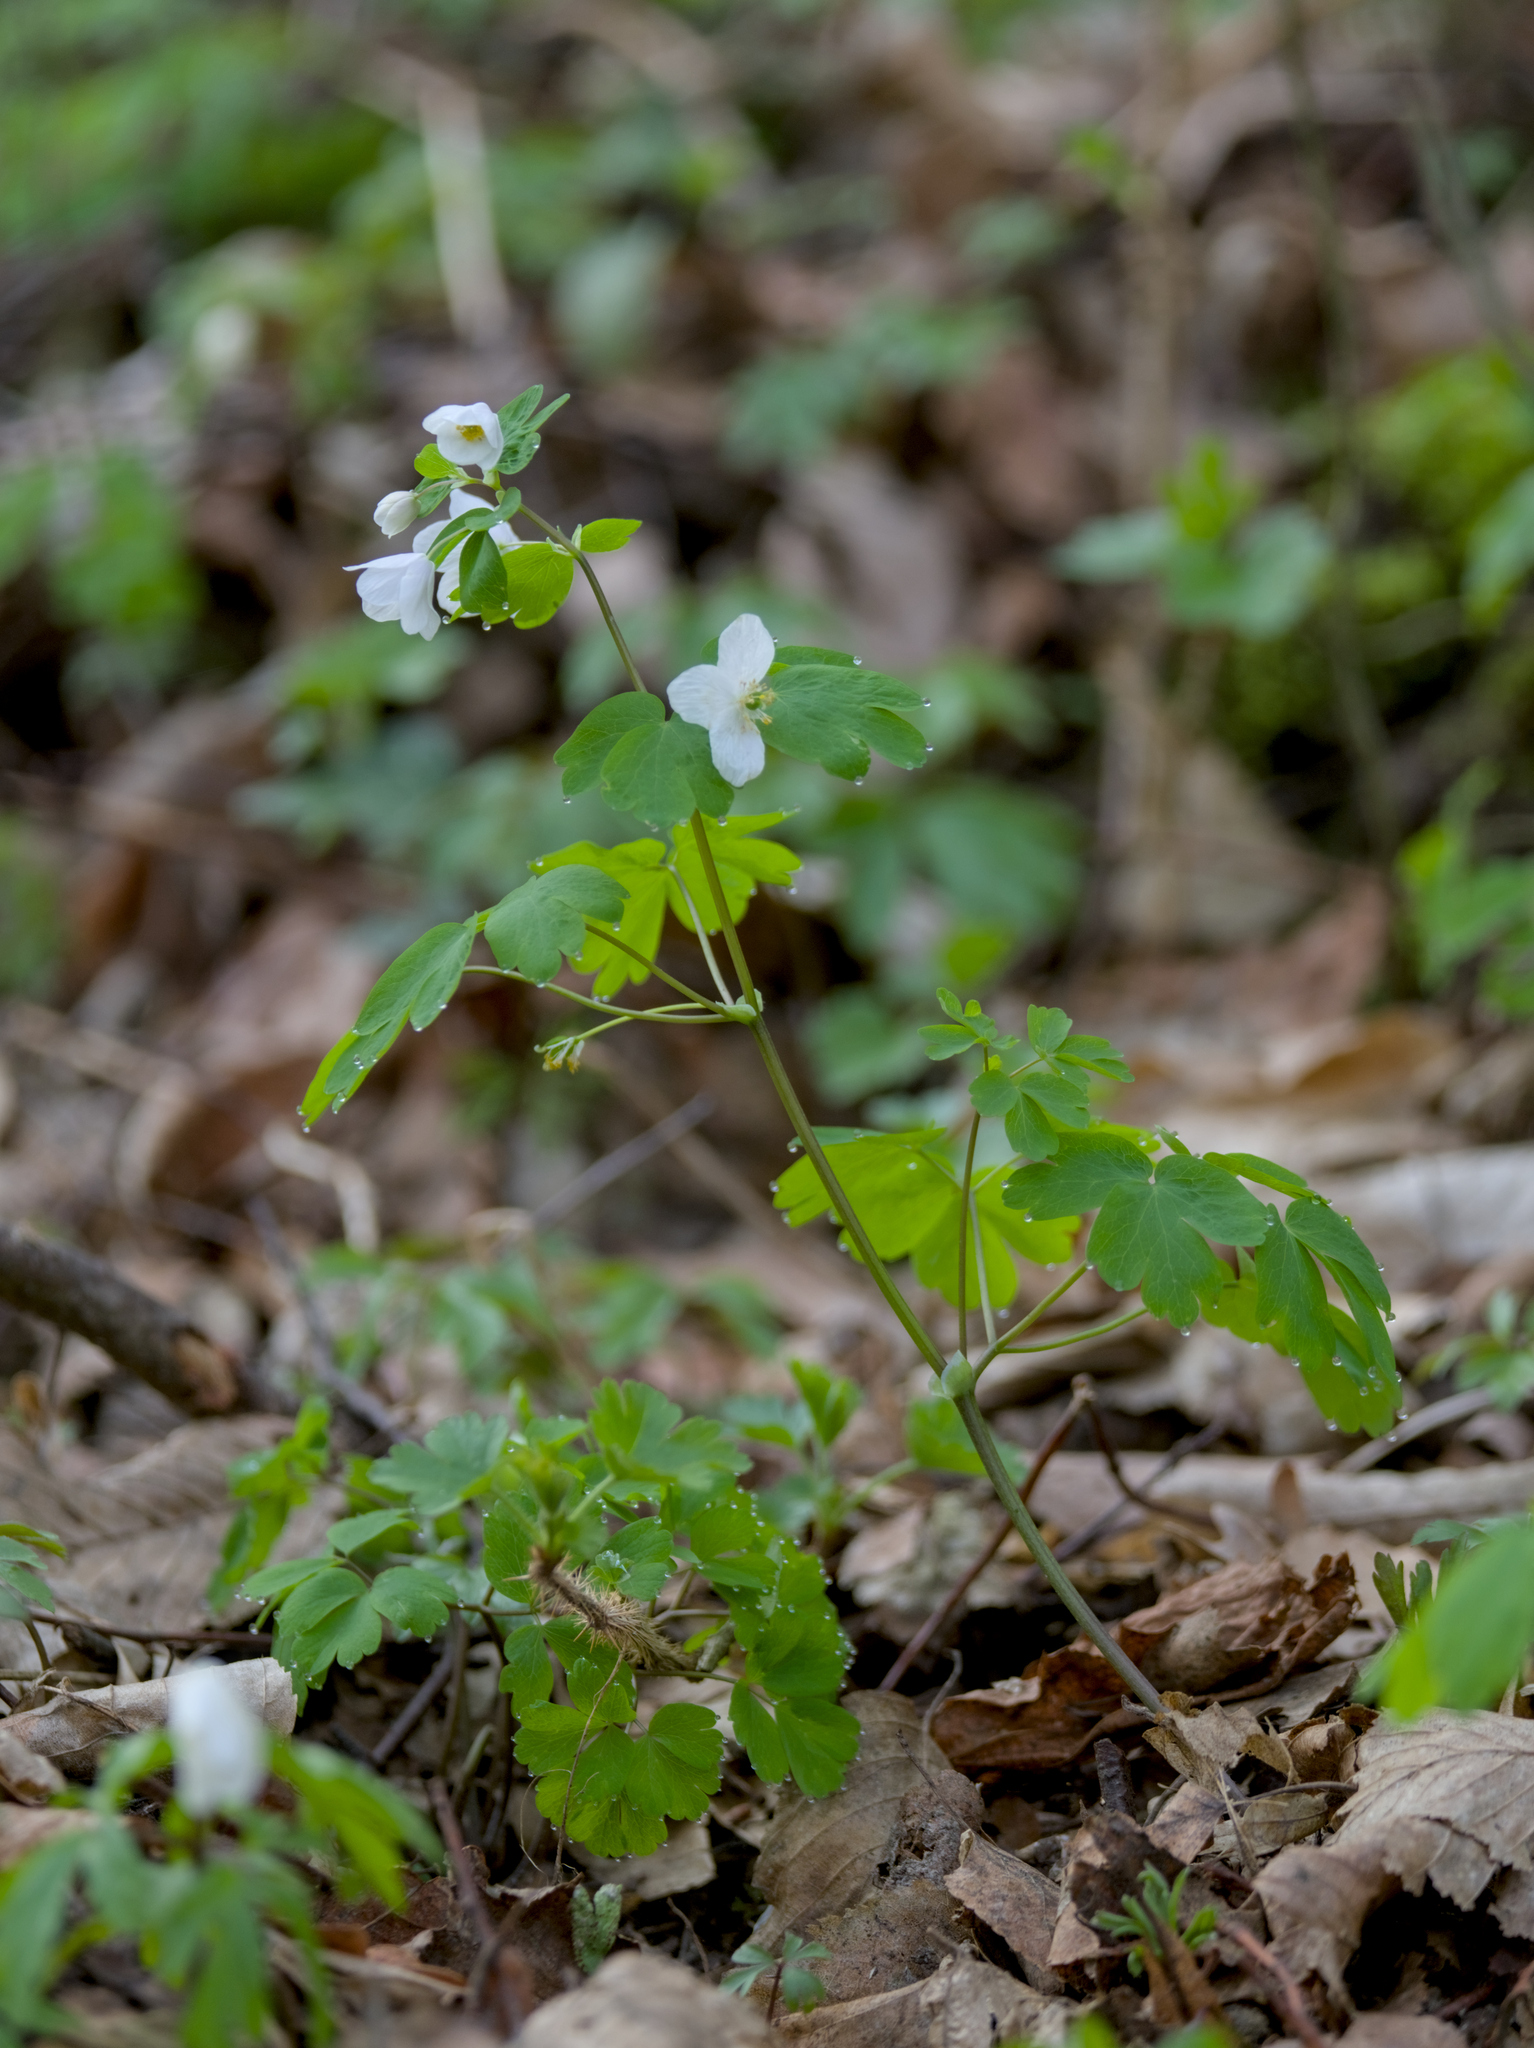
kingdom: Plantae
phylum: Tracheophyta
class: Magnoliopsida
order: Ranunculales
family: Ranunculaceae
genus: Isopyrum
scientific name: Isopyrum thalictroides
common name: Isopyrum
